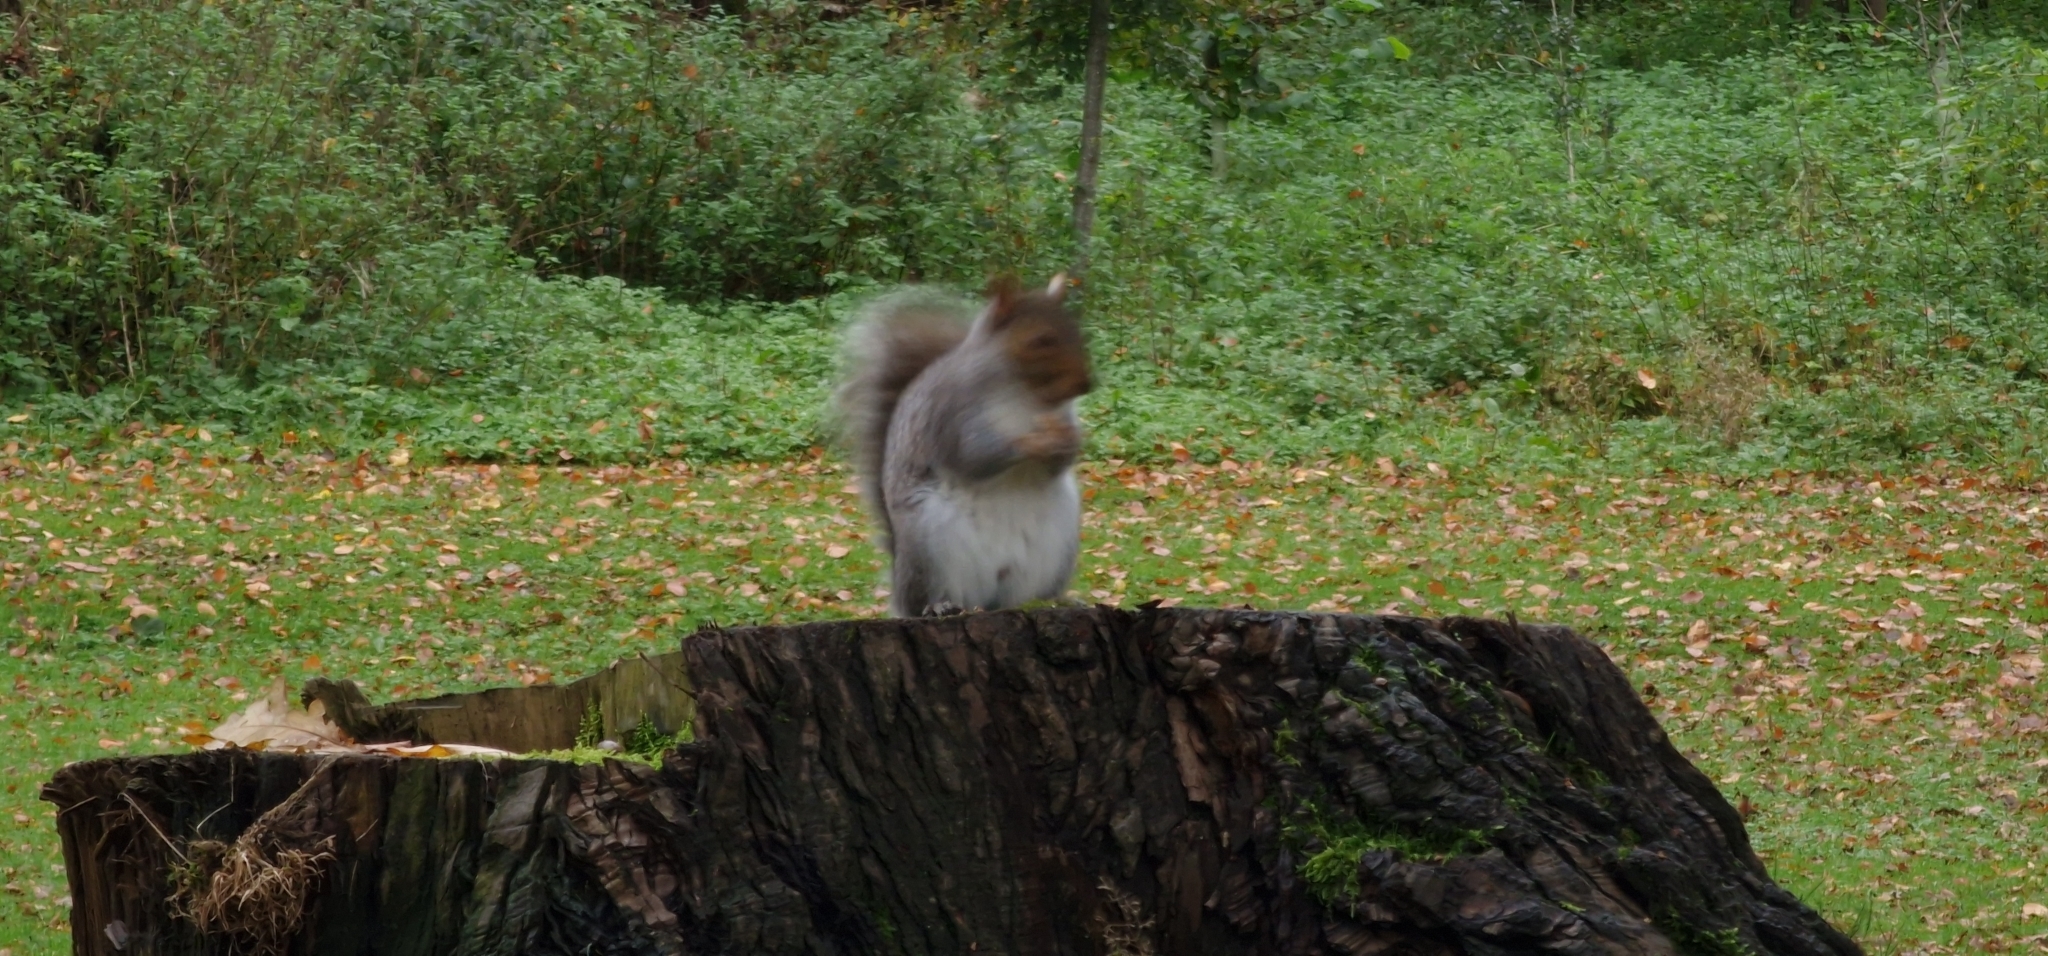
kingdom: Animalia
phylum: Chordata
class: Mammalia
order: Rodentia
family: Sciuridae
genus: Sciurus
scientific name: Sciurus carolinensis
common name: Eastern gray squirrel
